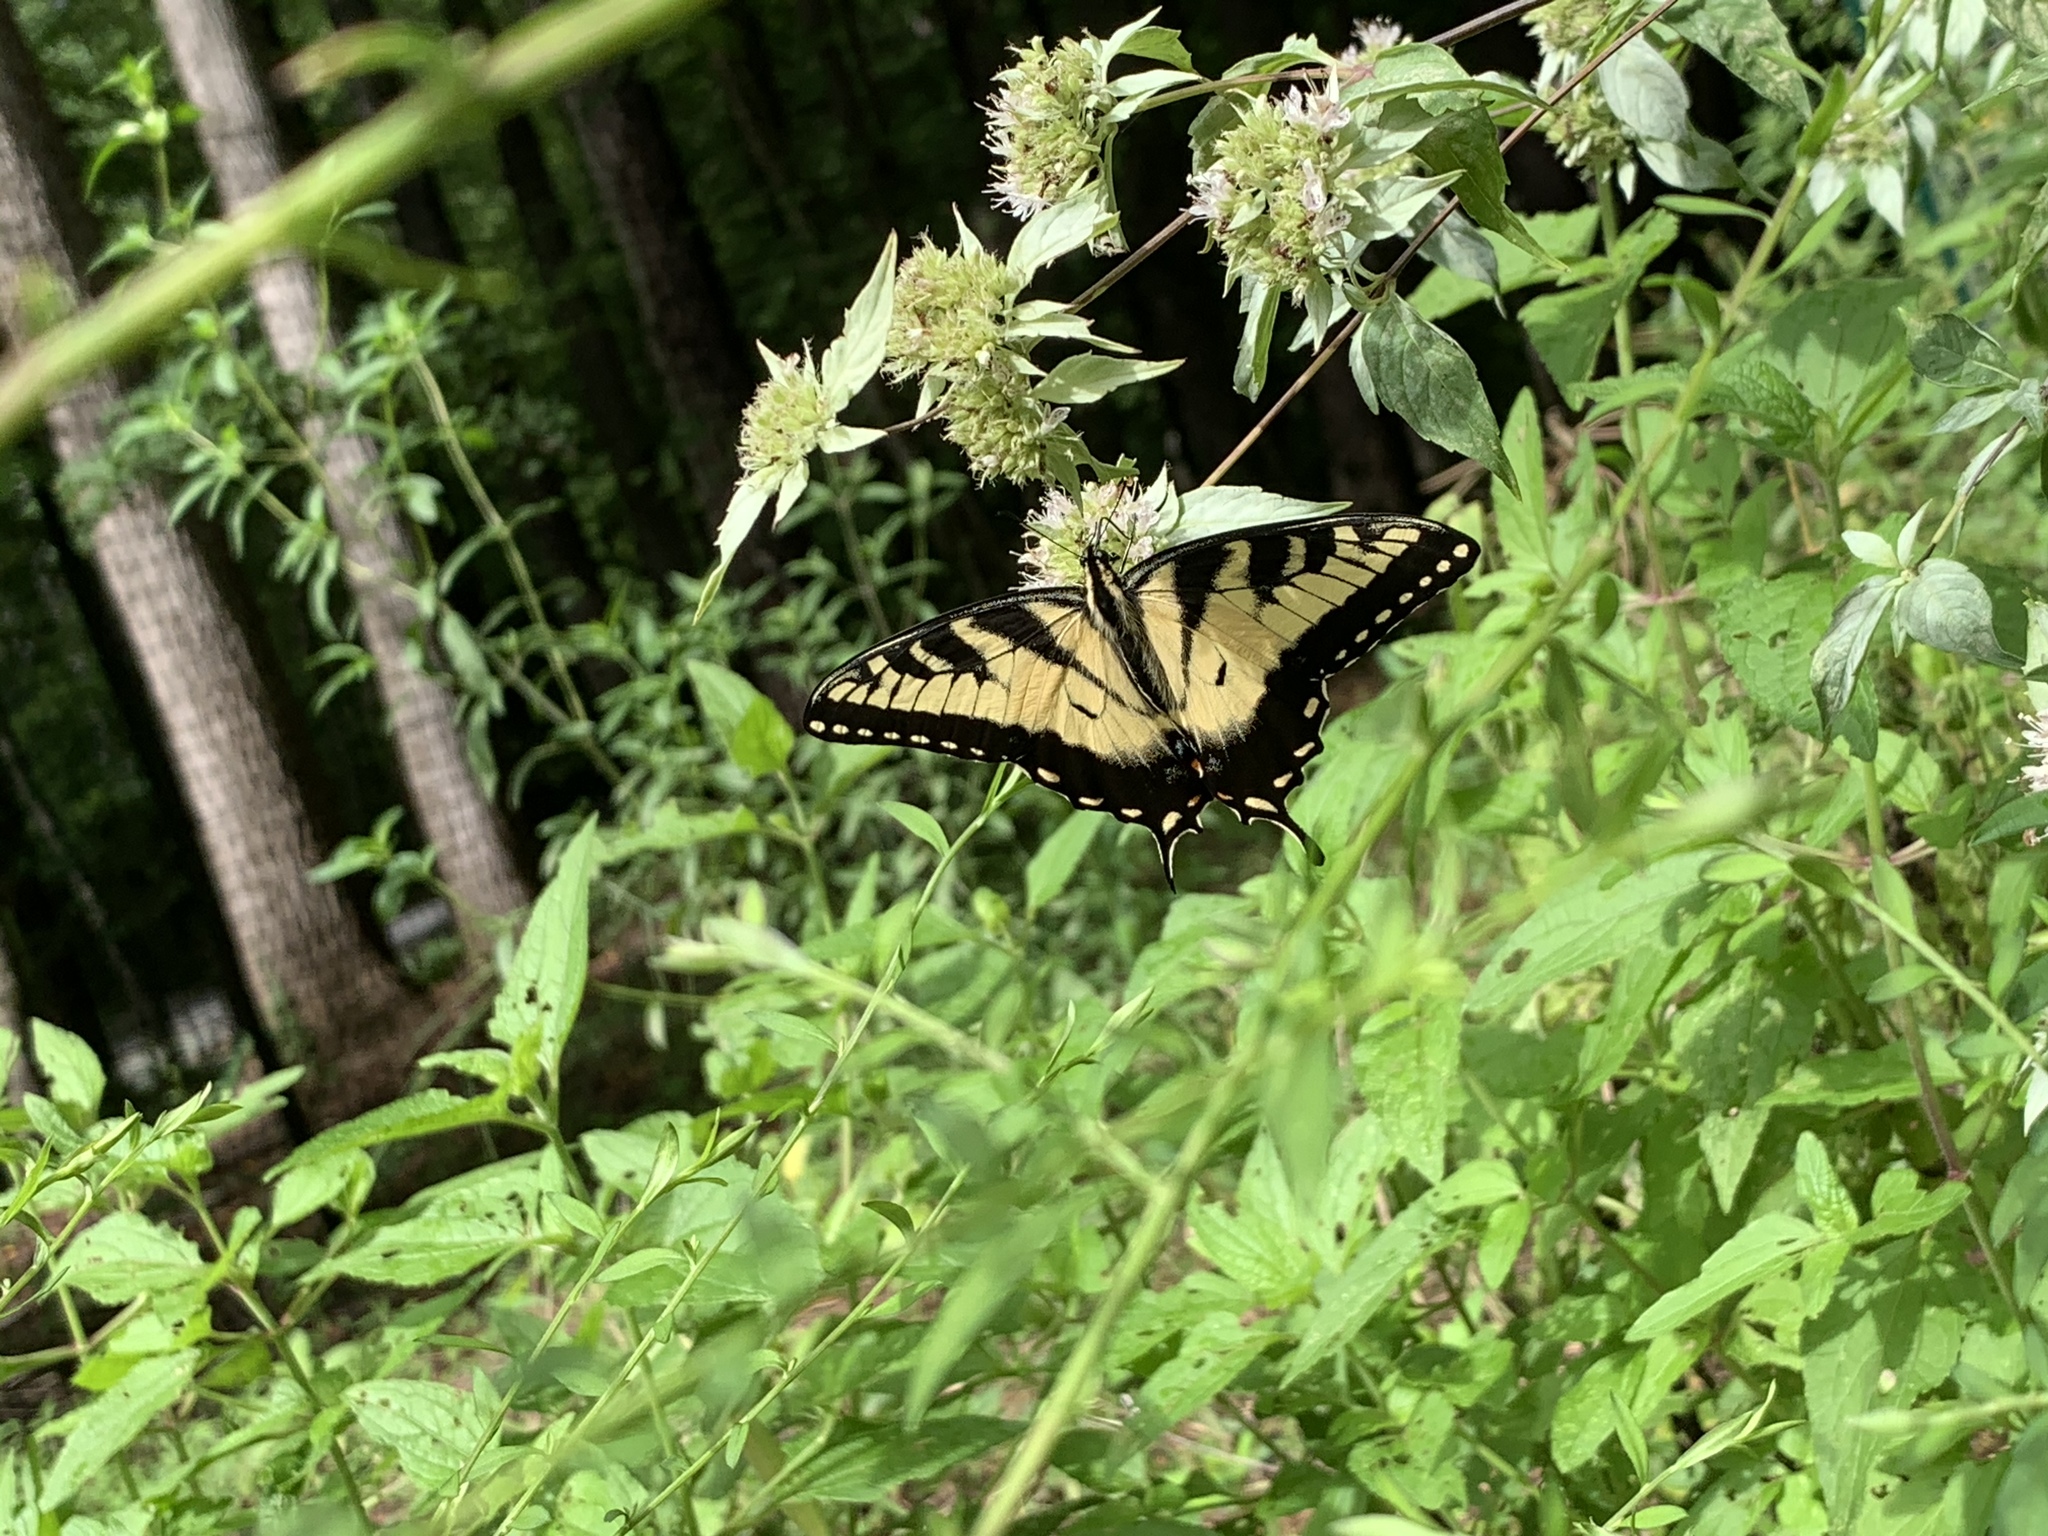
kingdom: Animalia
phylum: Arthropoda
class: Insecta
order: Lepidoptera
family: Papilionidae
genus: Papilio
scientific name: Papilio glaucus
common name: Tiger swallowtail
